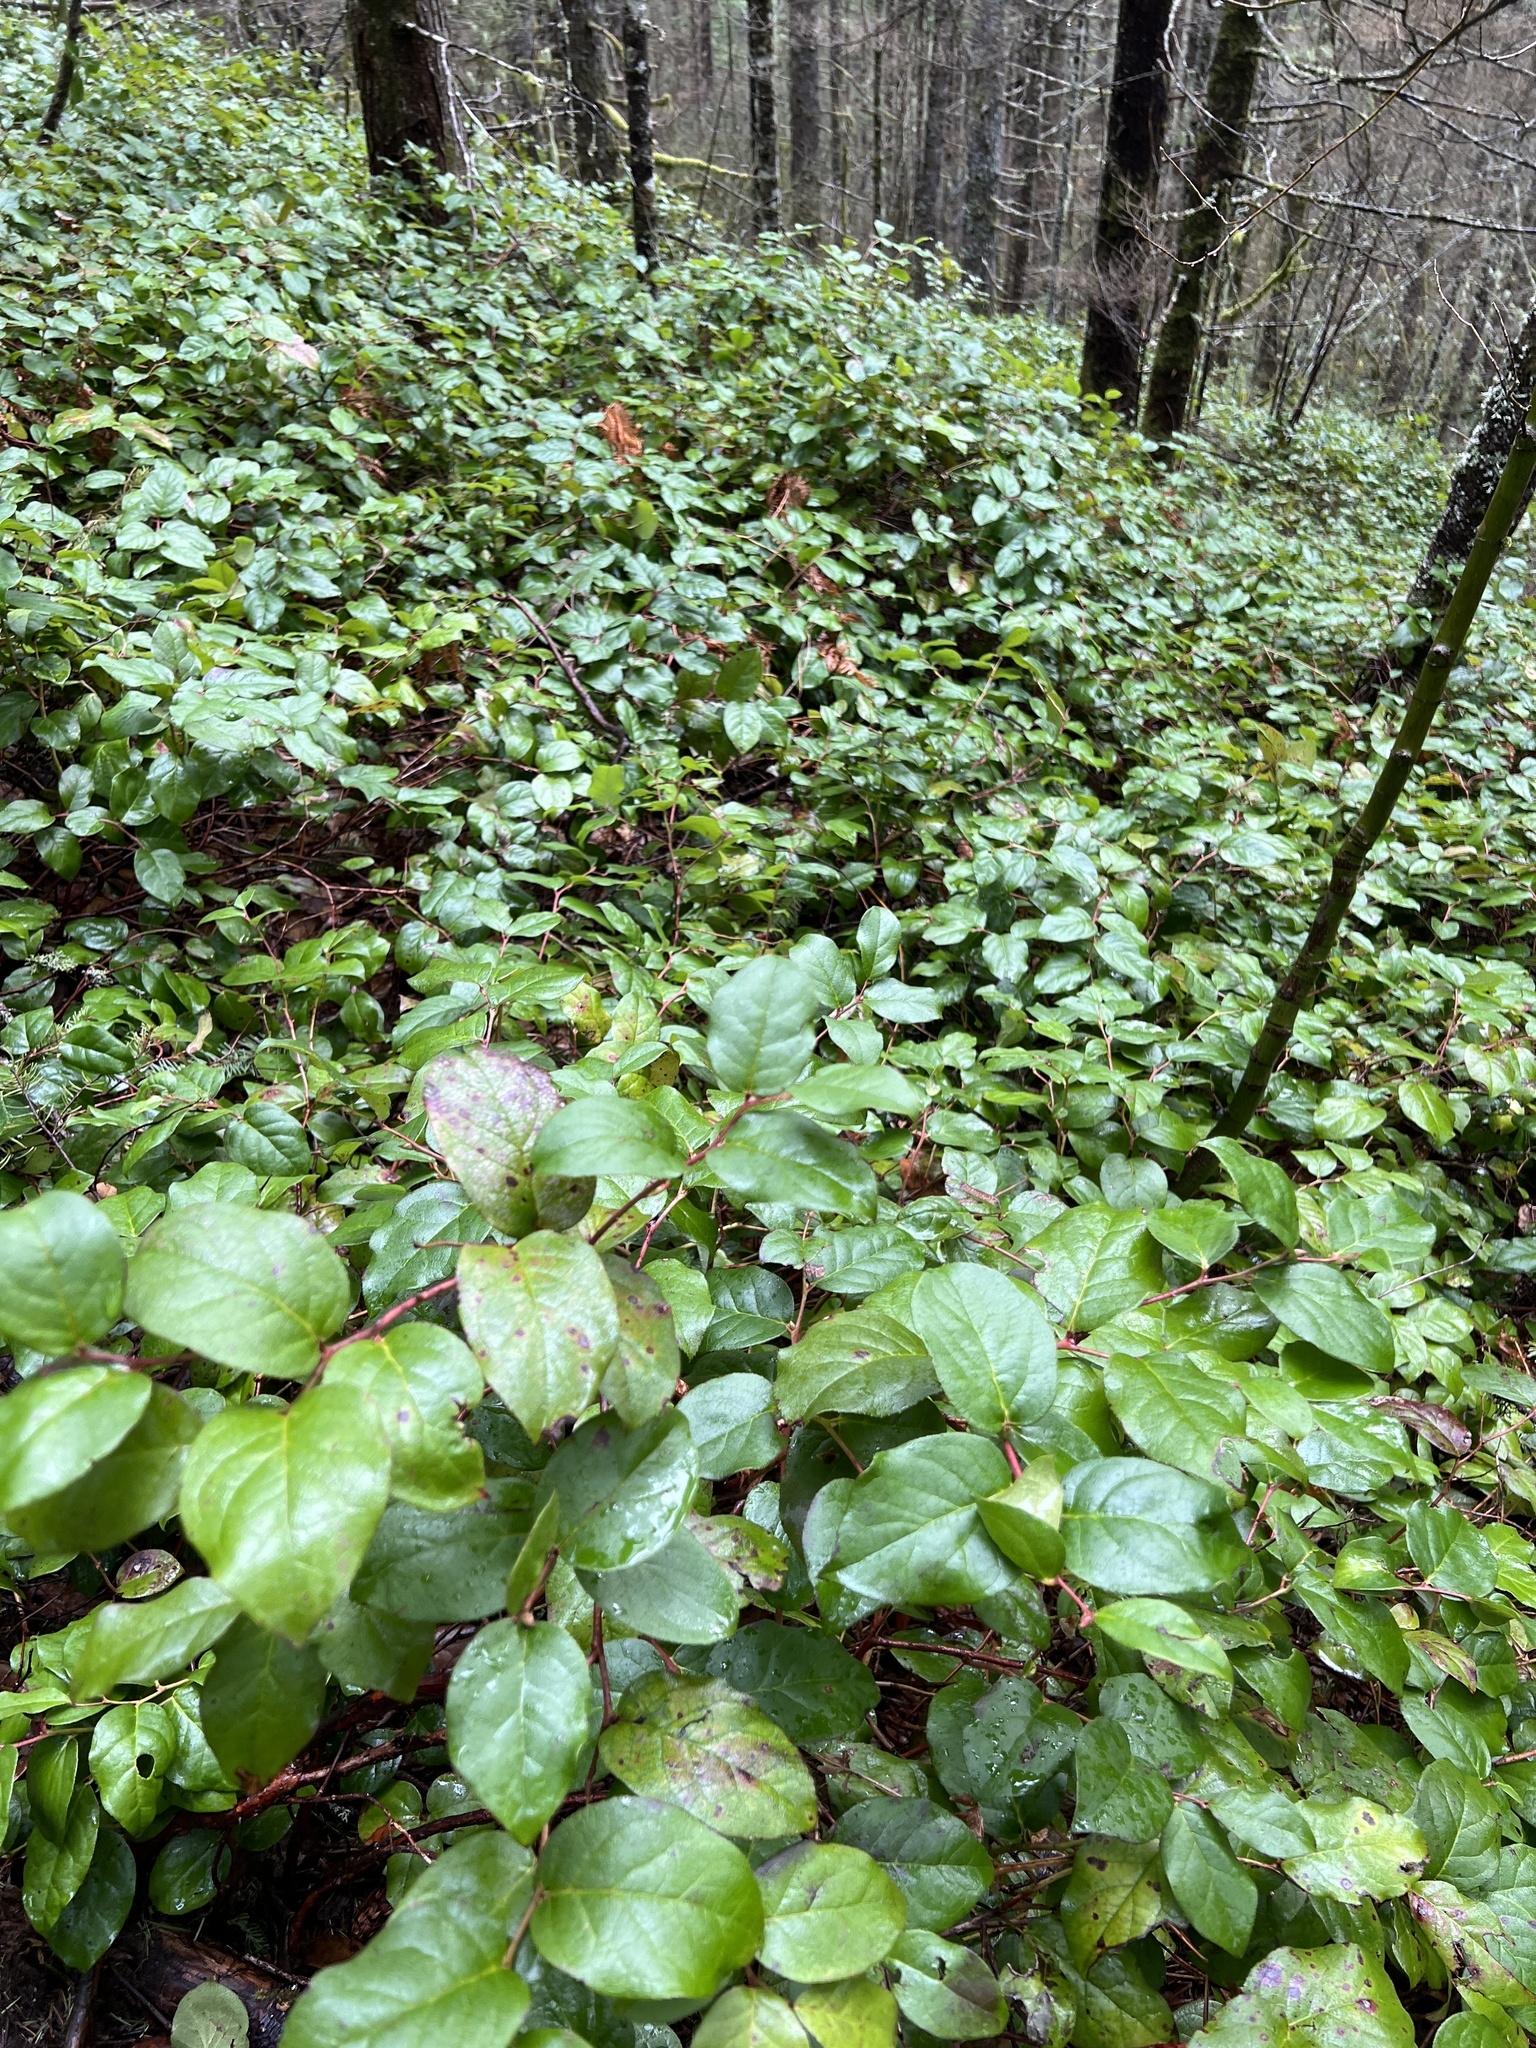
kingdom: Plantae
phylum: Tracheophyta
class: Magnoliopsida
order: Ericales
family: Ericaceae
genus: Gaultheria
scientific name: Gaultheria shallon
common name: Shallon
